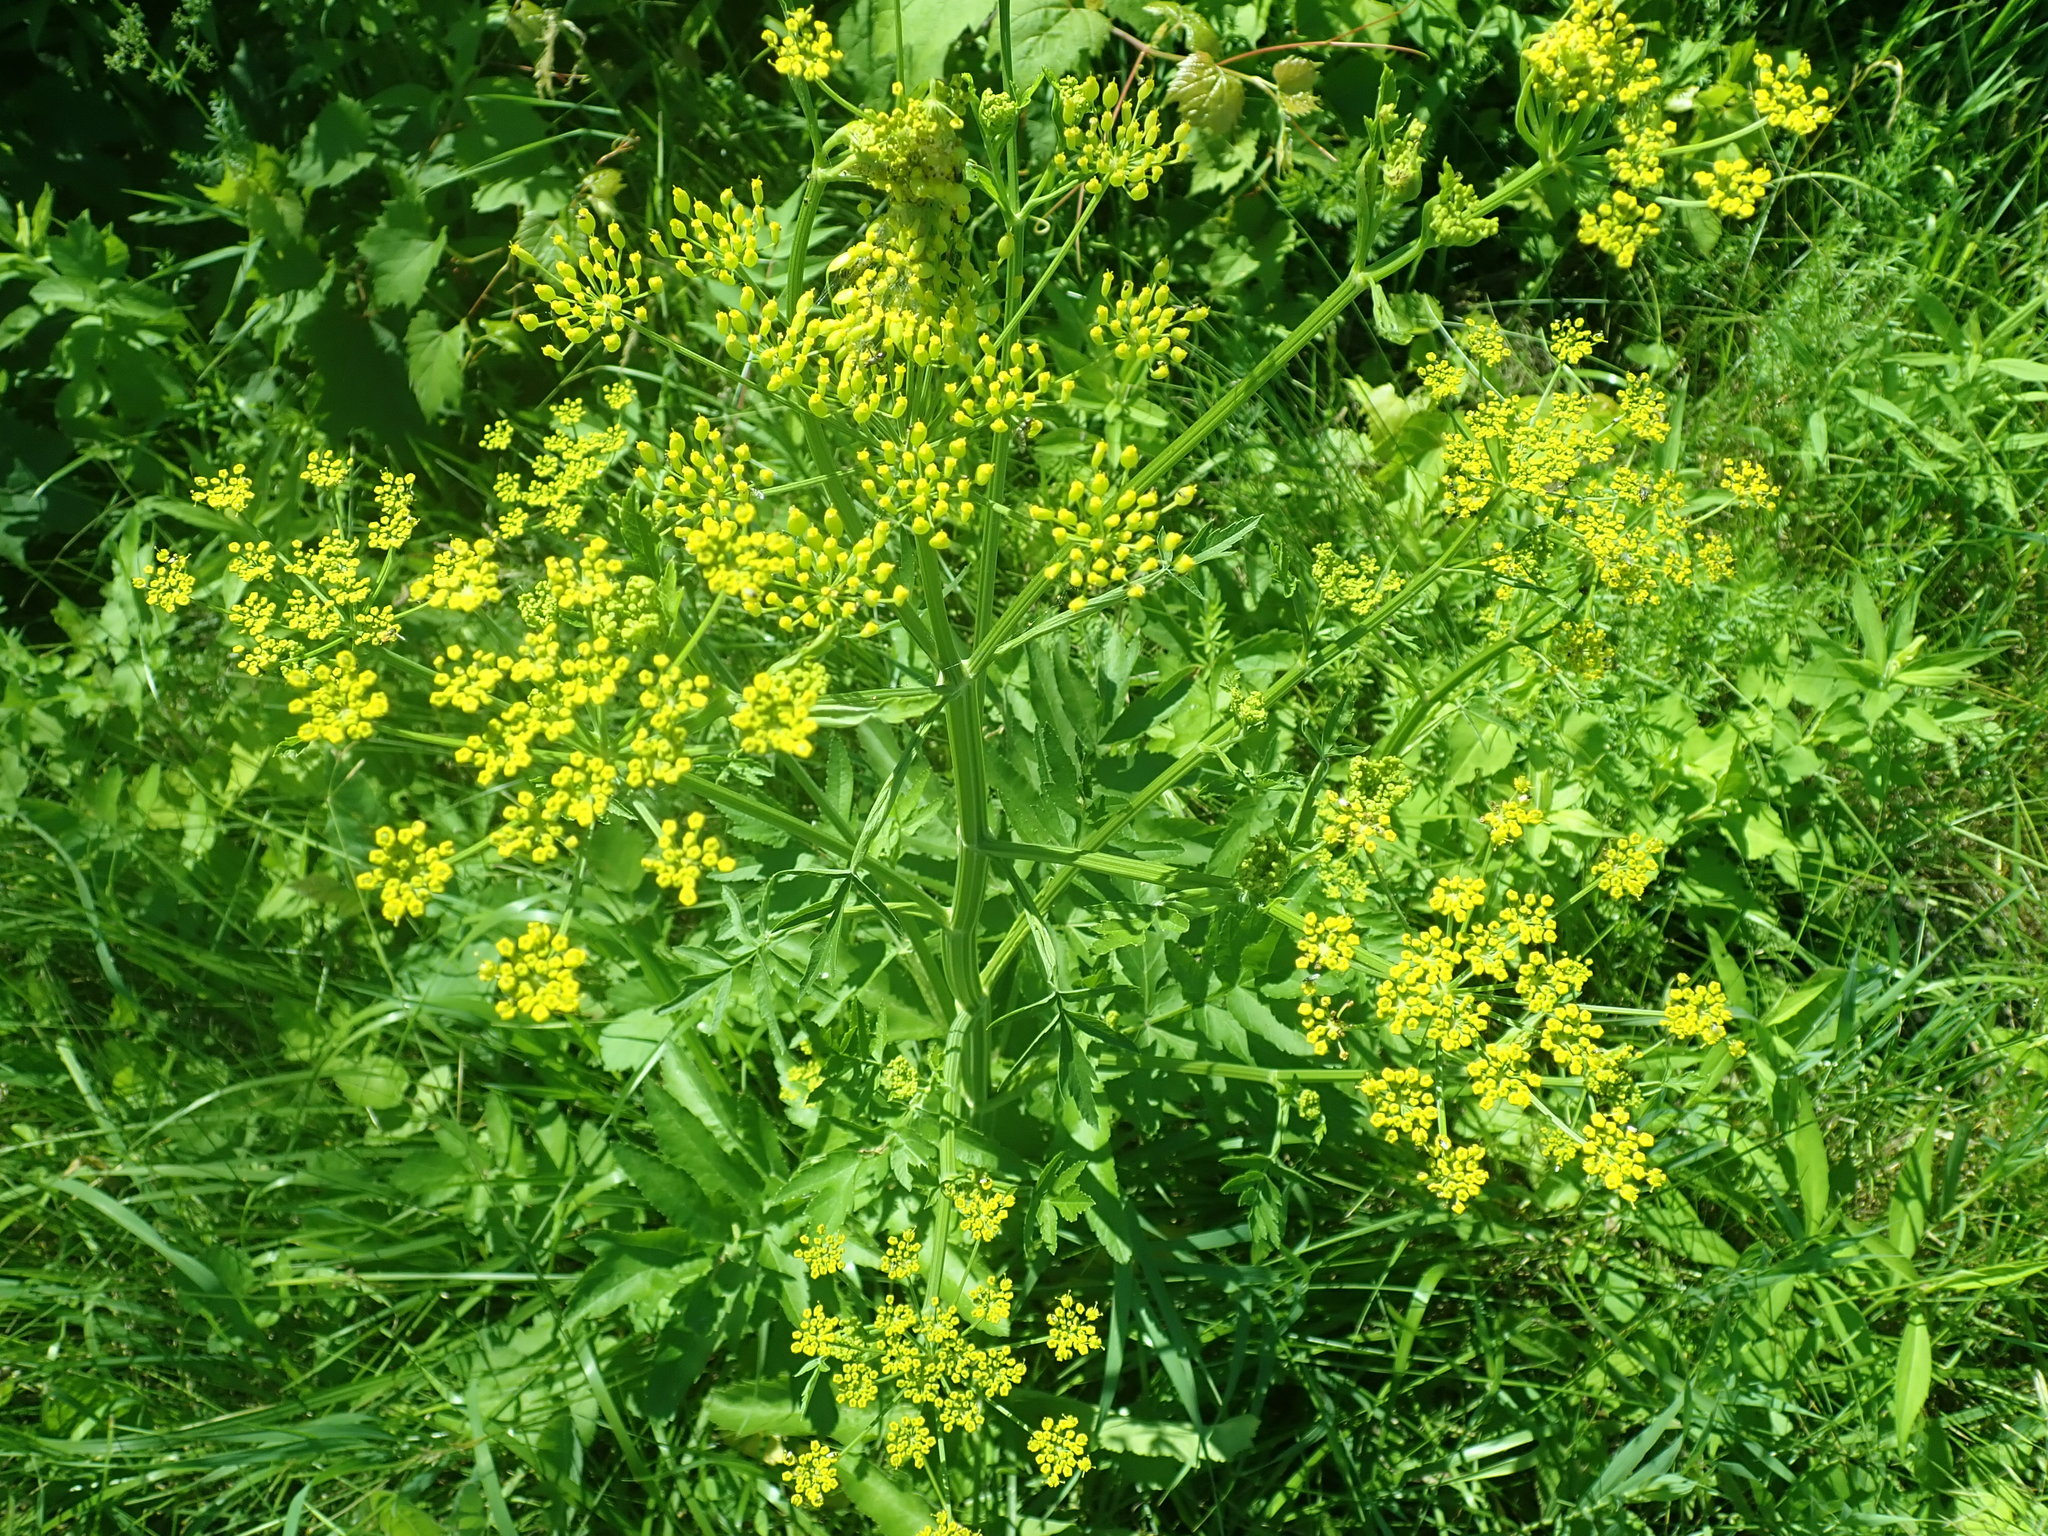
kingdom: Plantae
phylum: Tracheophyta
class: Magnoliopsida
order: Apiales
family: Apiaceae
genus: Pastinaca
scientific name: Pastinaca sativa
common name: Wild parsnip
